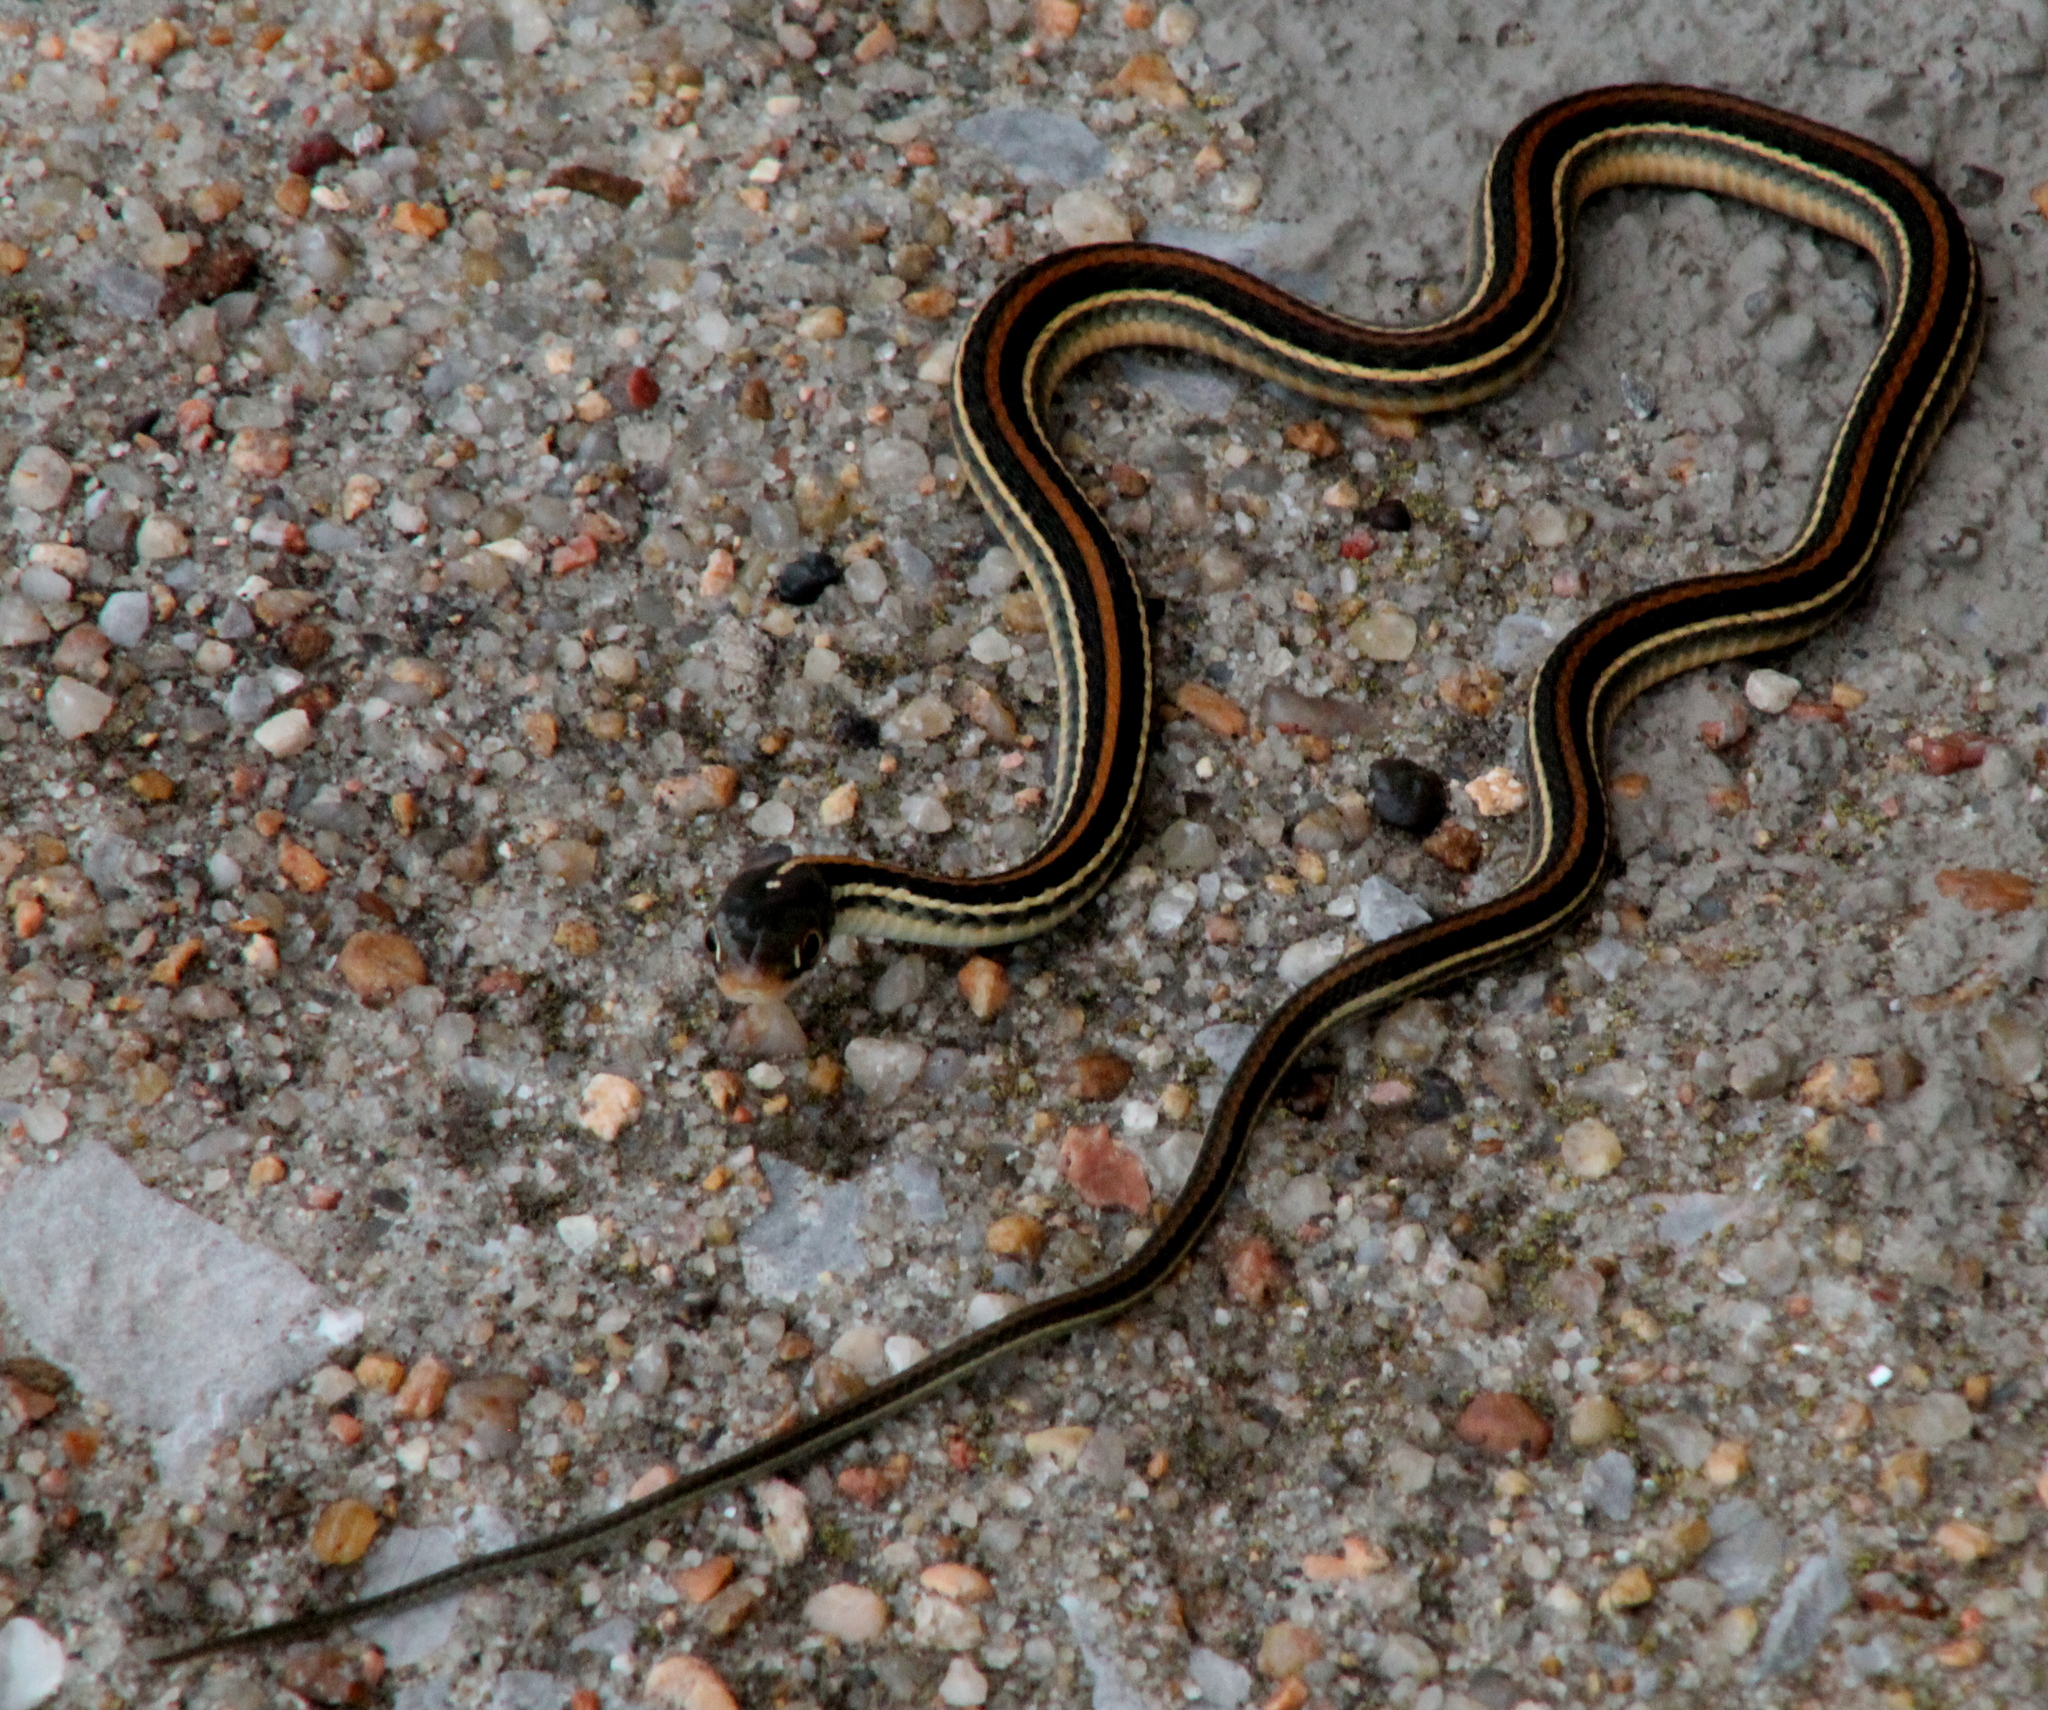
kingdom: Animalia
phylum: Chordata
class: Squamata
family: Colubridae
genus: Thamnophis
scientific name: Thamnophis proximus
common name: Western ribbon snake
